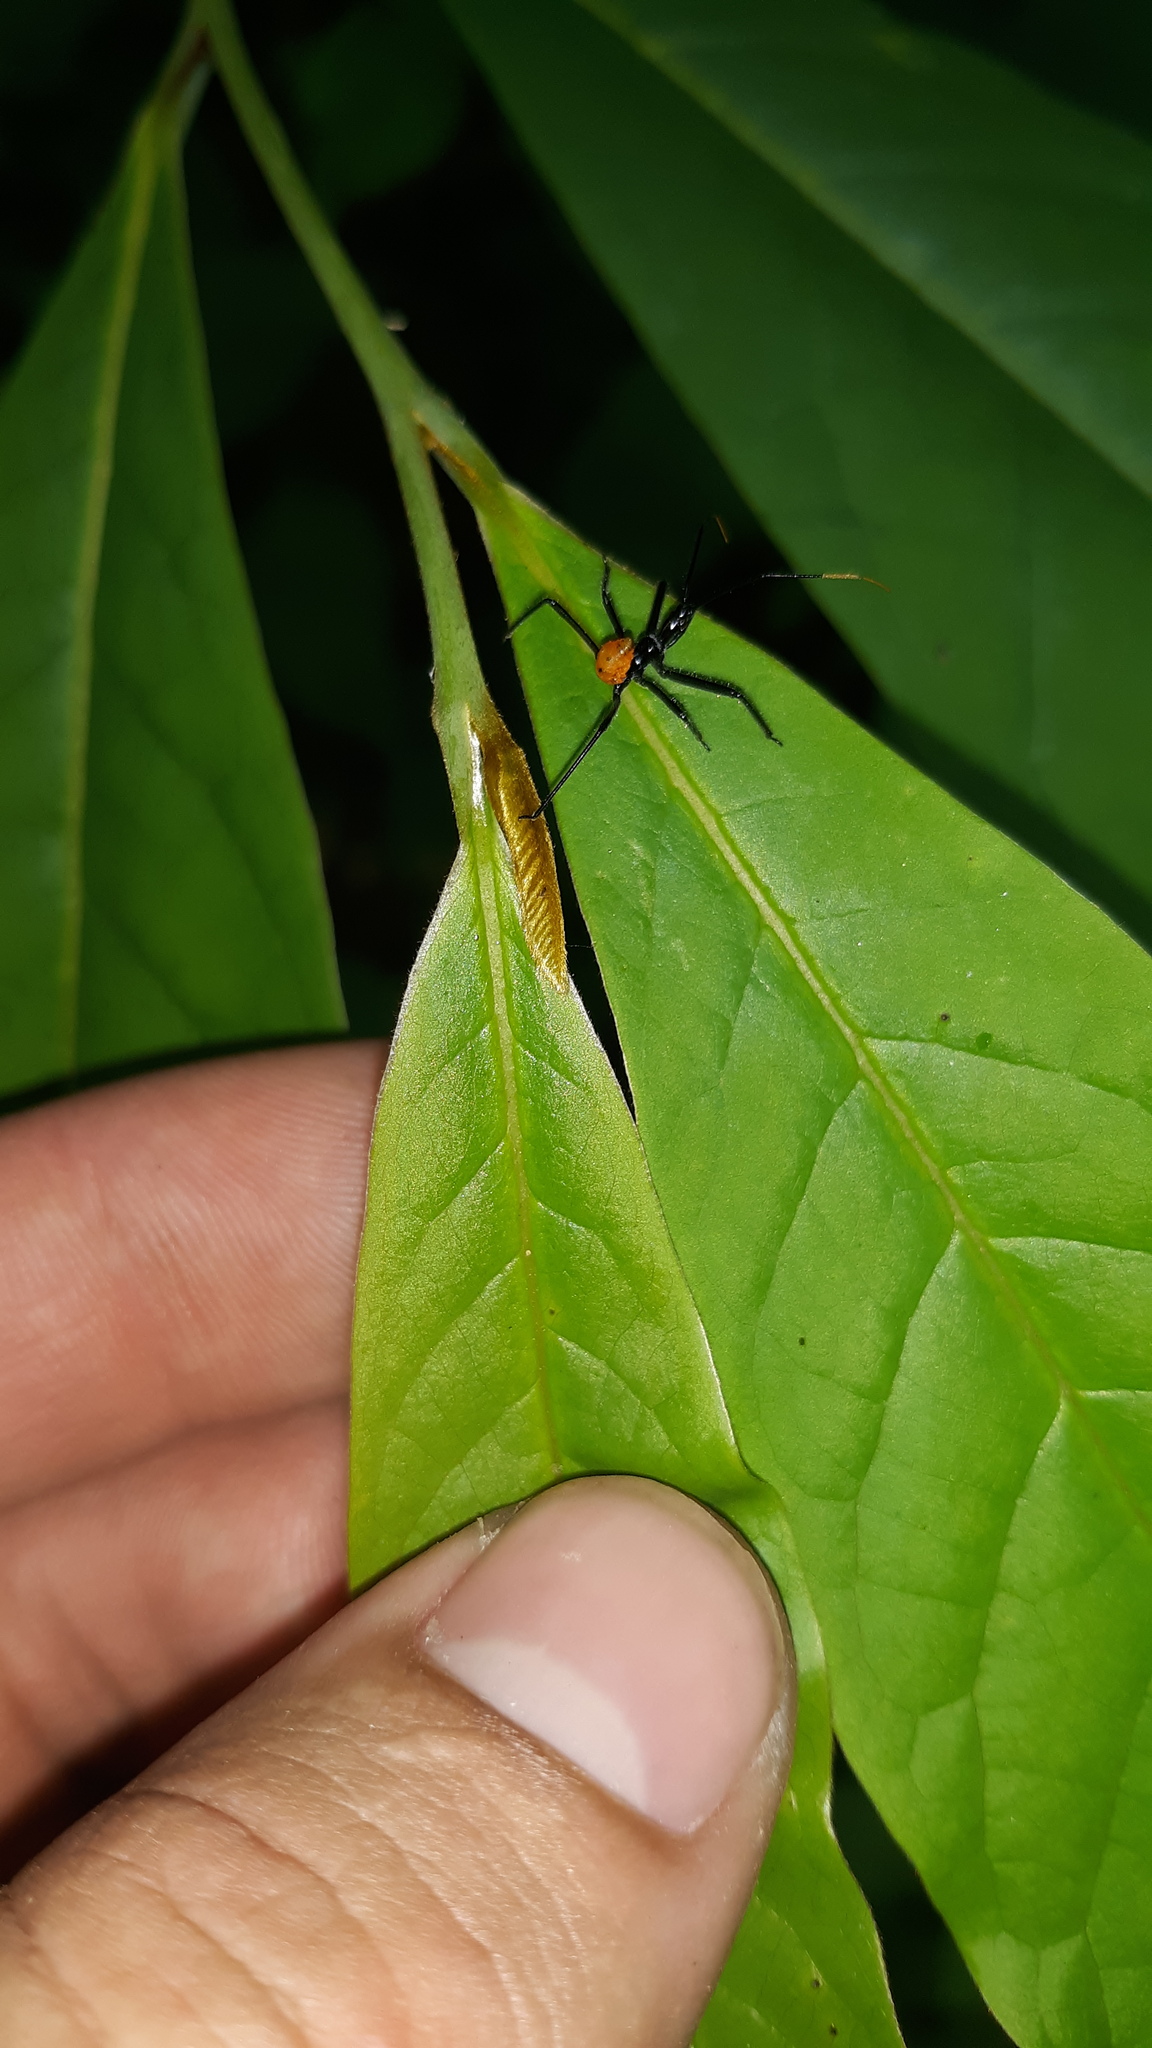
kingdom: Animalia
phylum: Arthropoda
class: Insecta
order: Hemiptera
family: Reduviidae
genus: Arilus
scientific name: Arilus cristatus
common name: North american wheel bug
